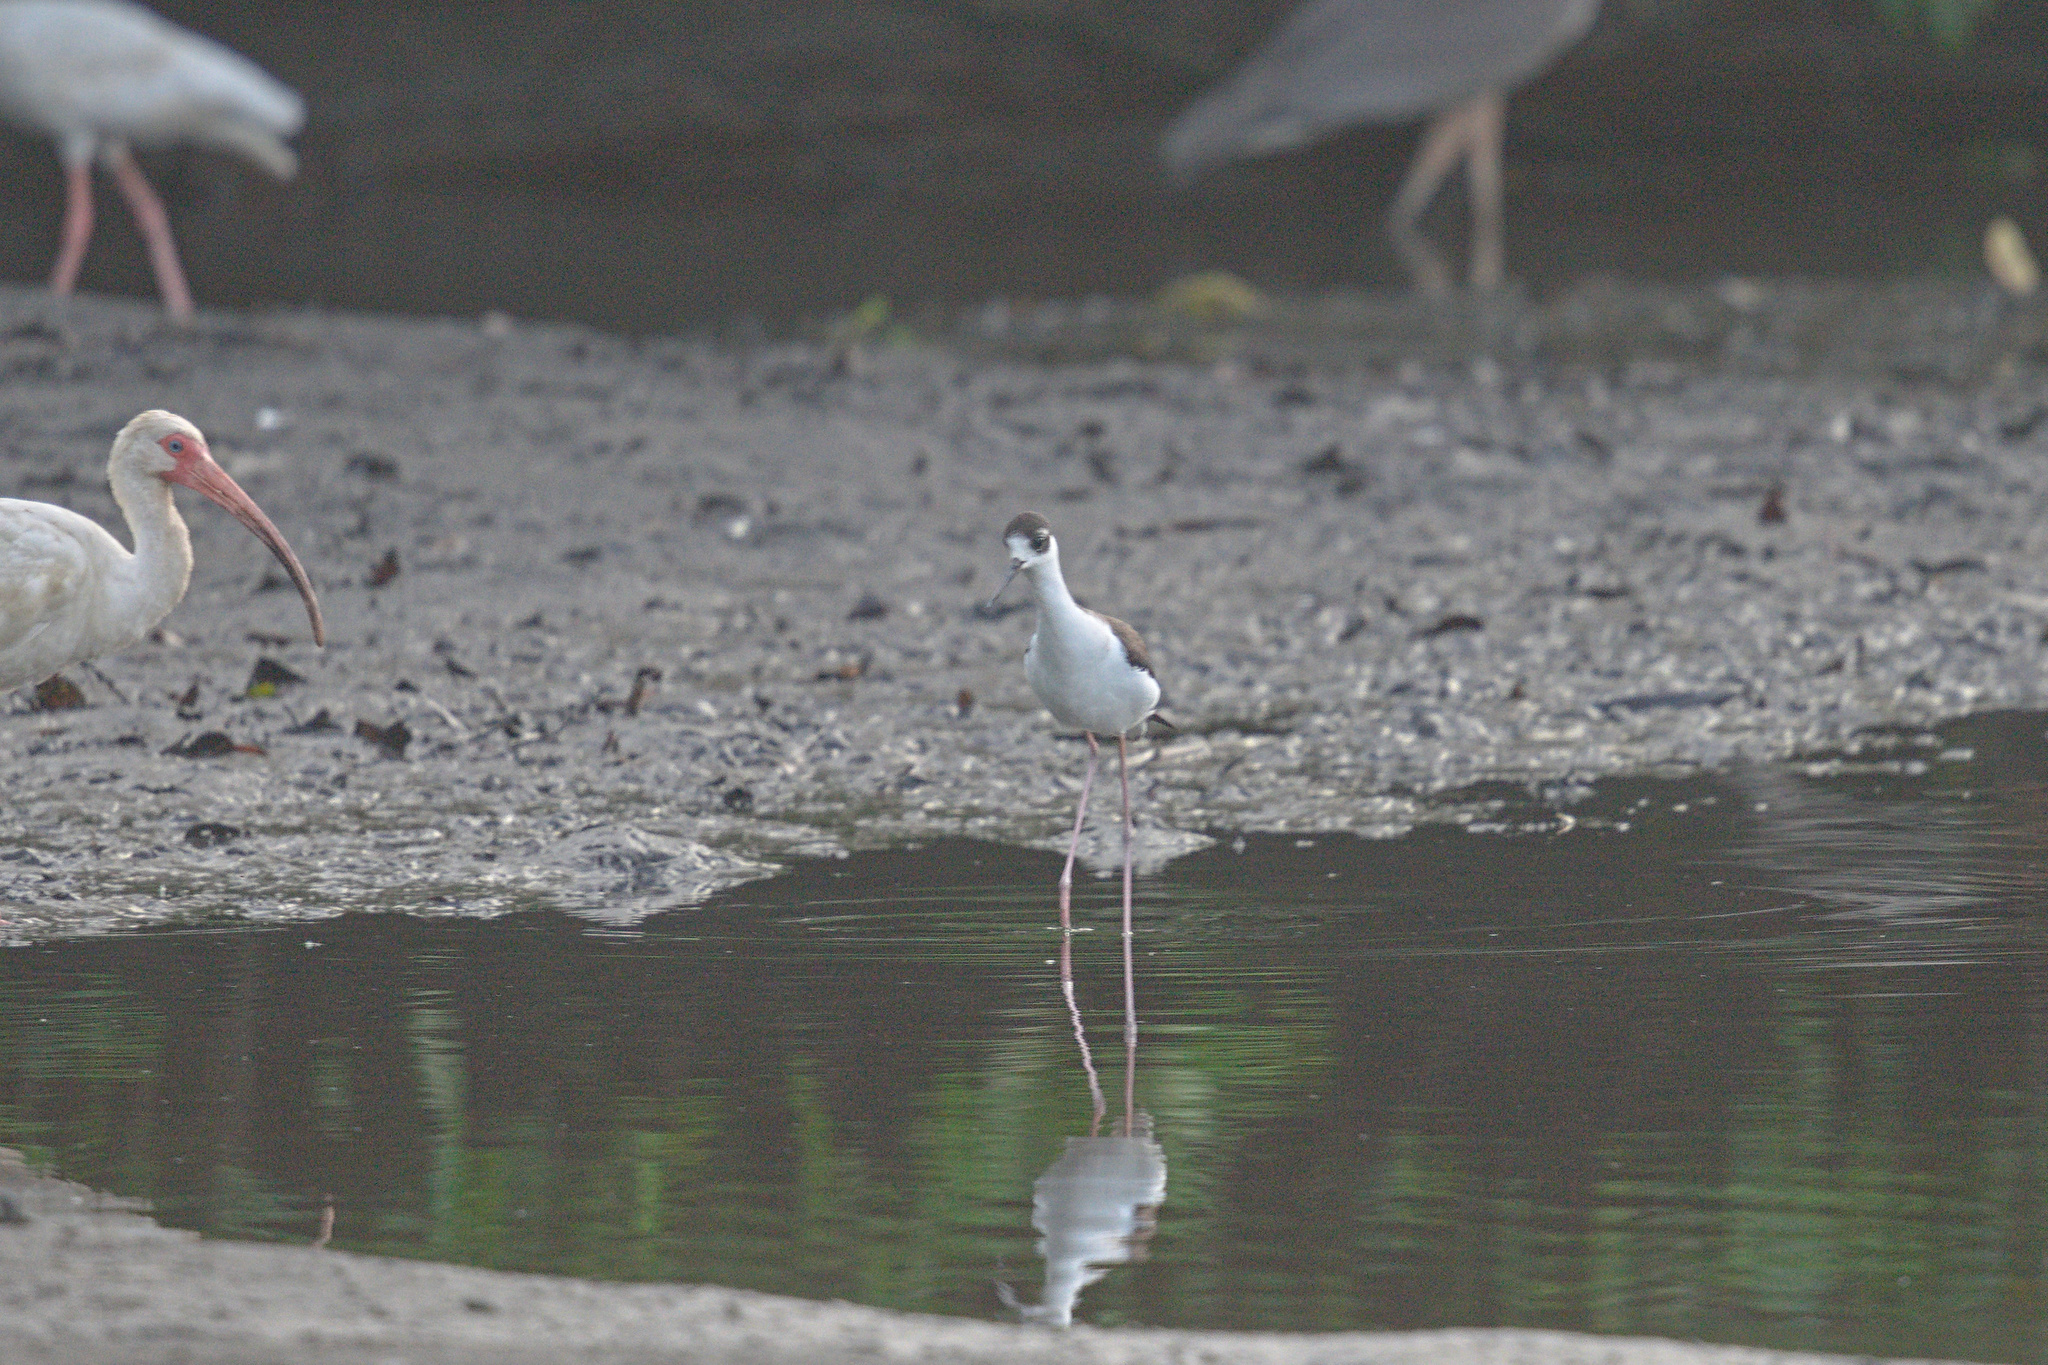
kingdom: Animalia
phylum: Chordata
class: Aves
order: Pelecaniformes
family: Threskiornithidae
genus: Eudocimus
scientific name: Eudocimus albus
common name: White ibis
